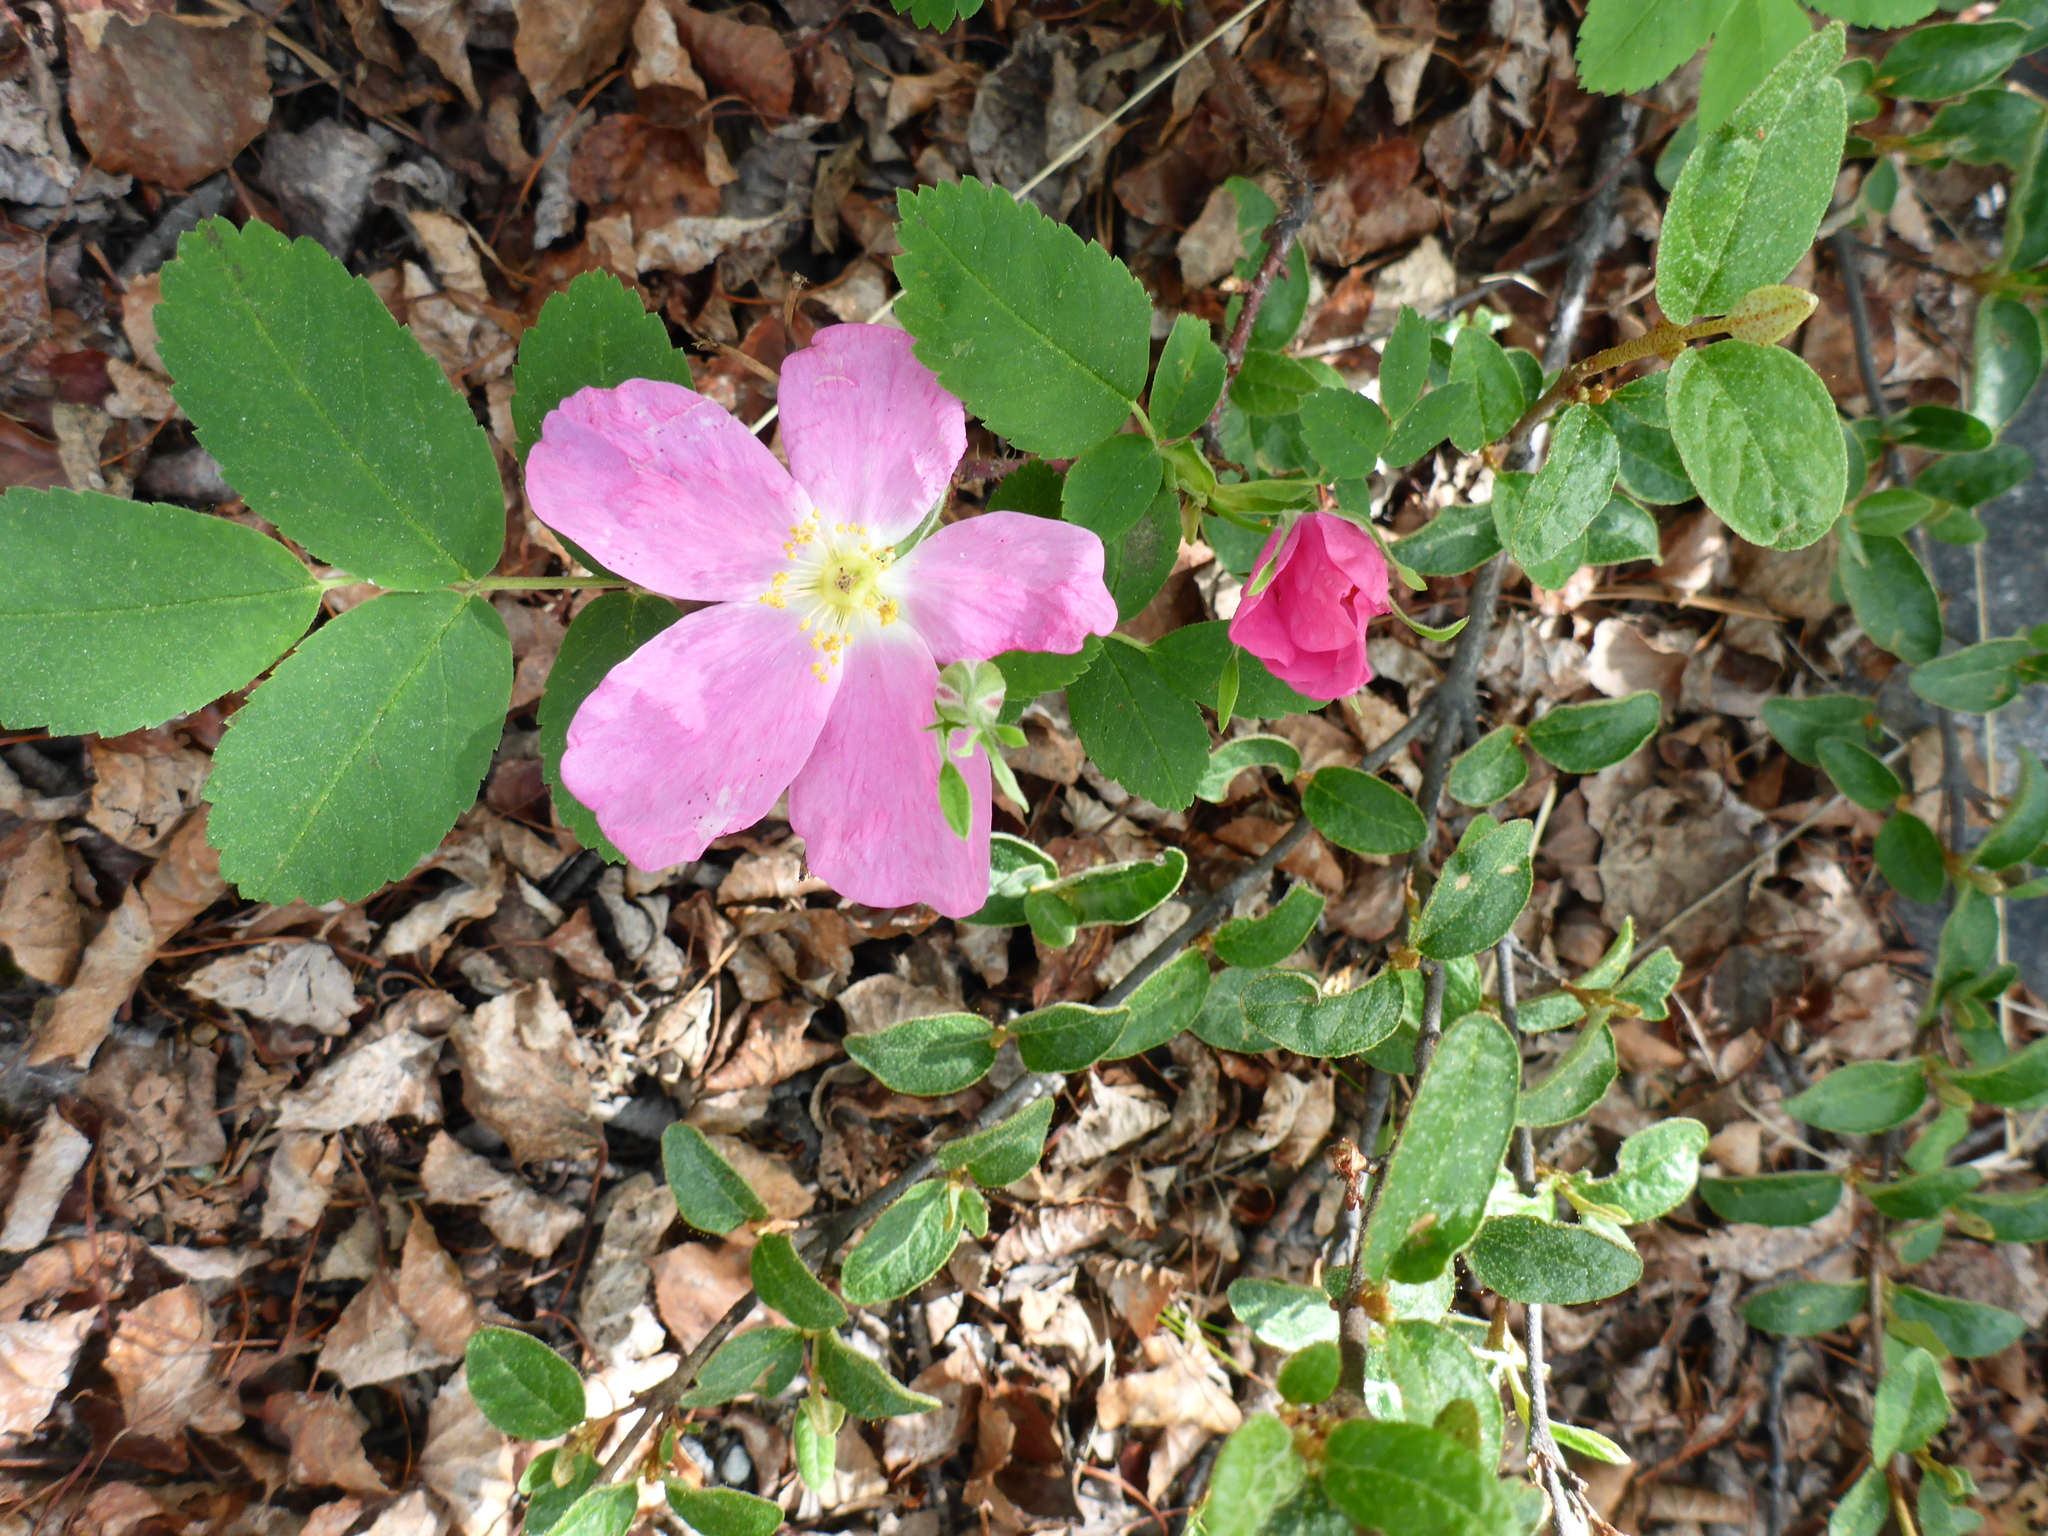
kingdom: Plantae
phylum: Tracheophyta
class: Magnoliopsida
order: Rosales
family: Rosaceae
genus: Rosa
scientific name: Rosa acicularis
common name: Prickly rose
